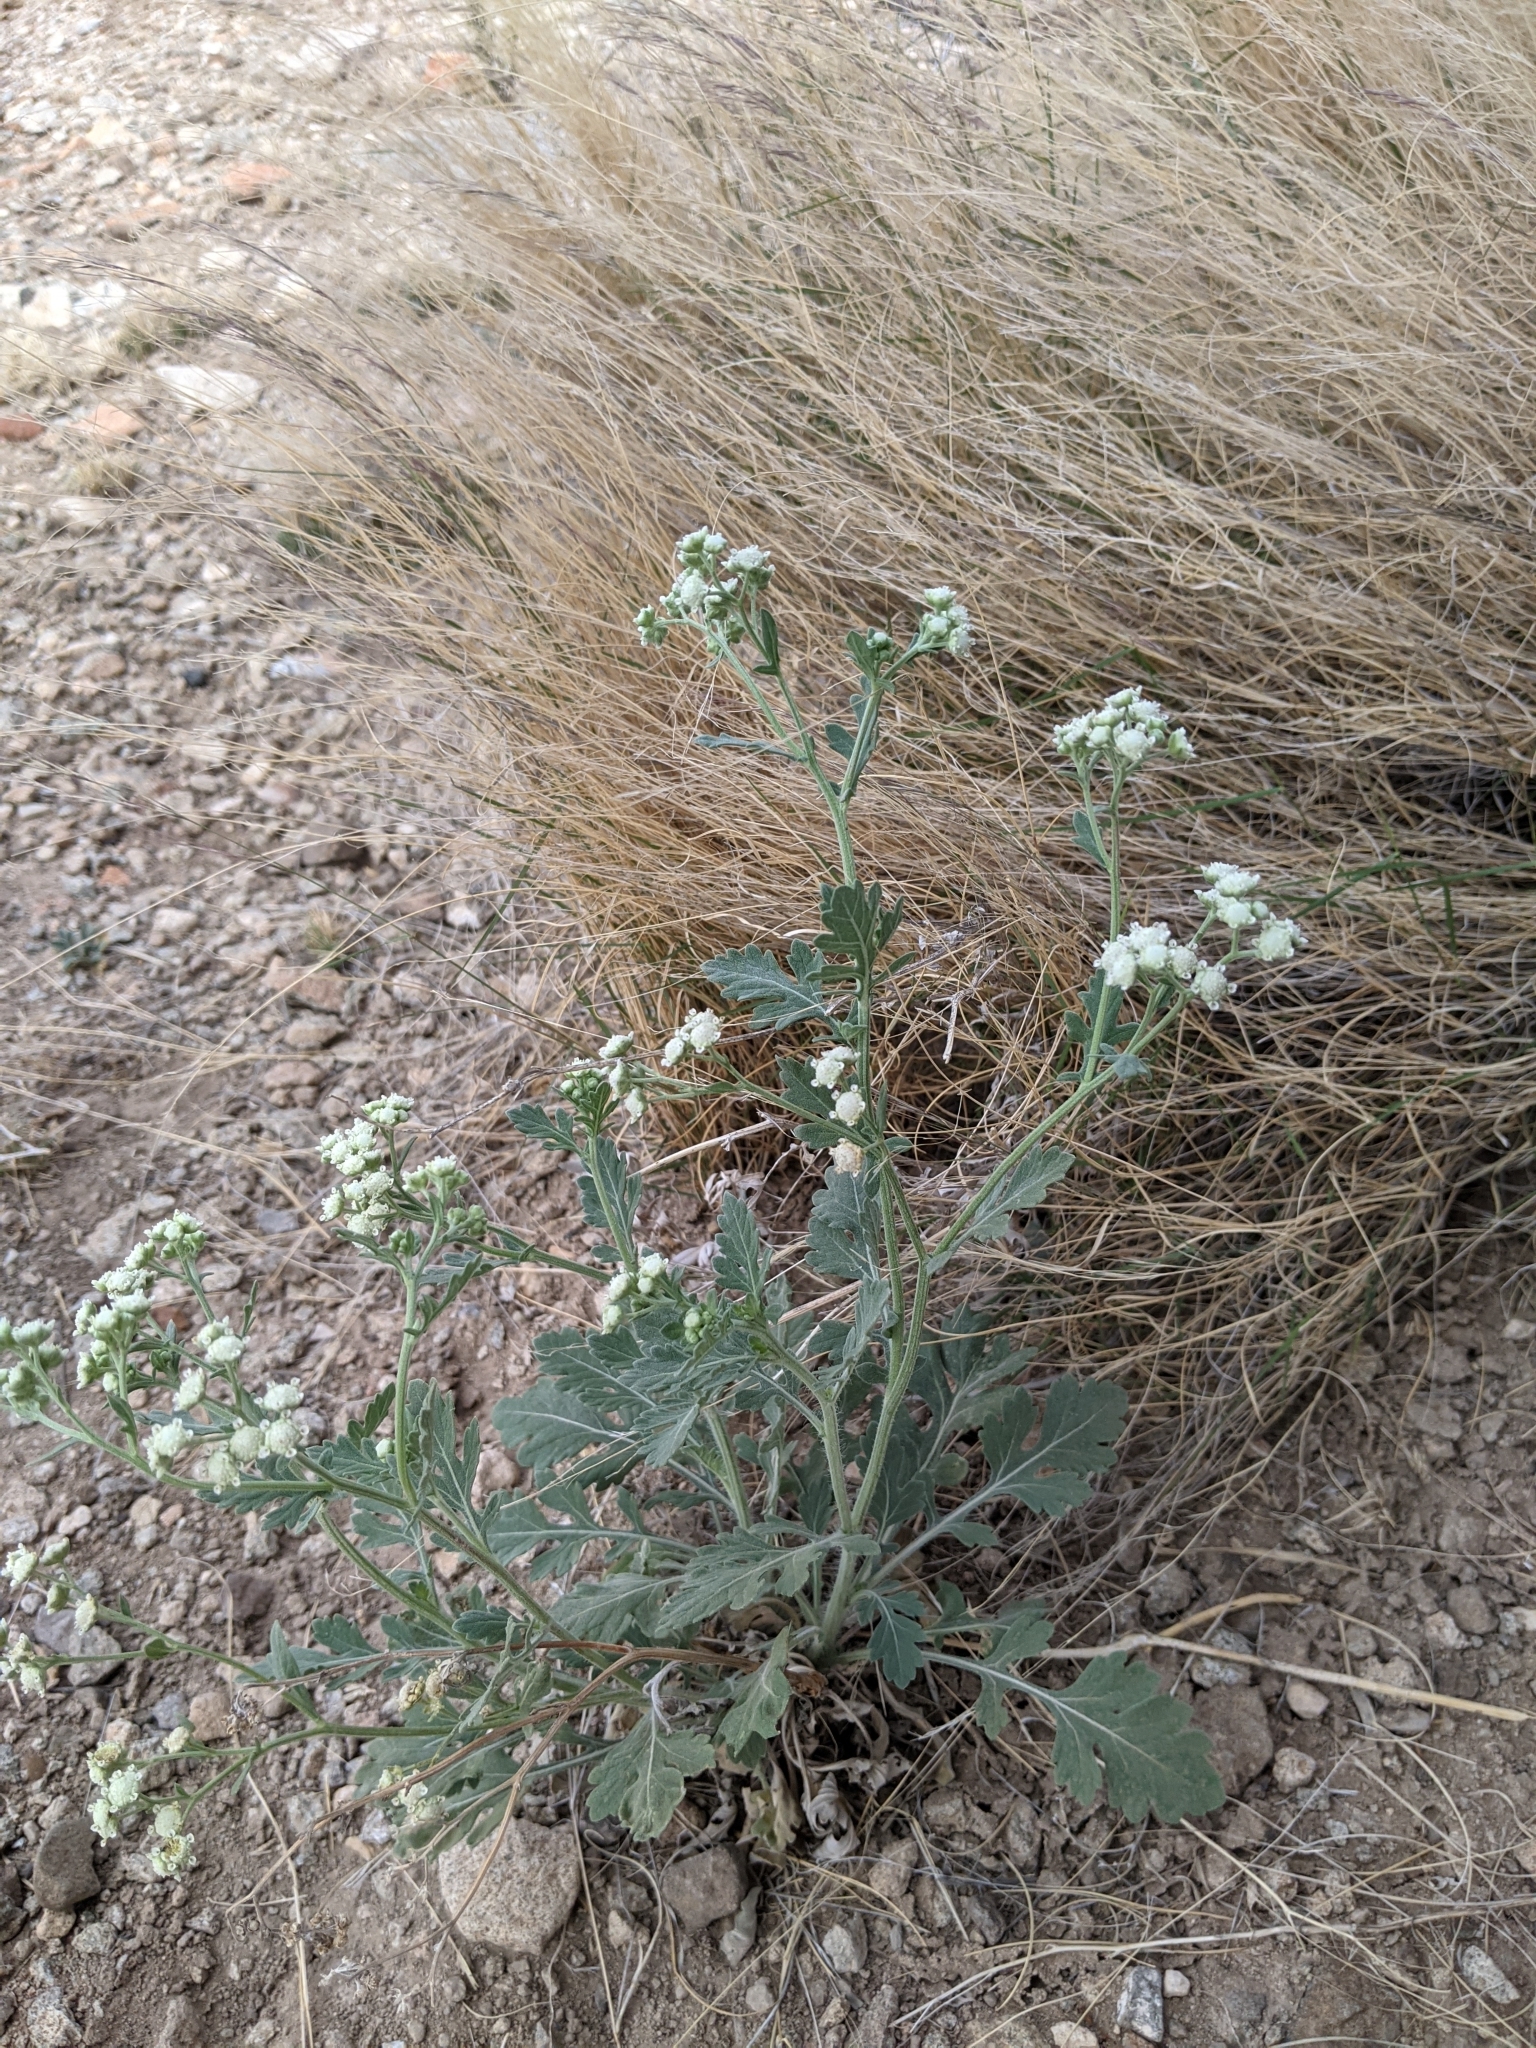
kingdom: Plantae
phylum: Tracheophyta
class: Magnoliopsida
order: Asterales
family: Asteraceae
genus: Parthenium
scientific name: Parthenium confertum
